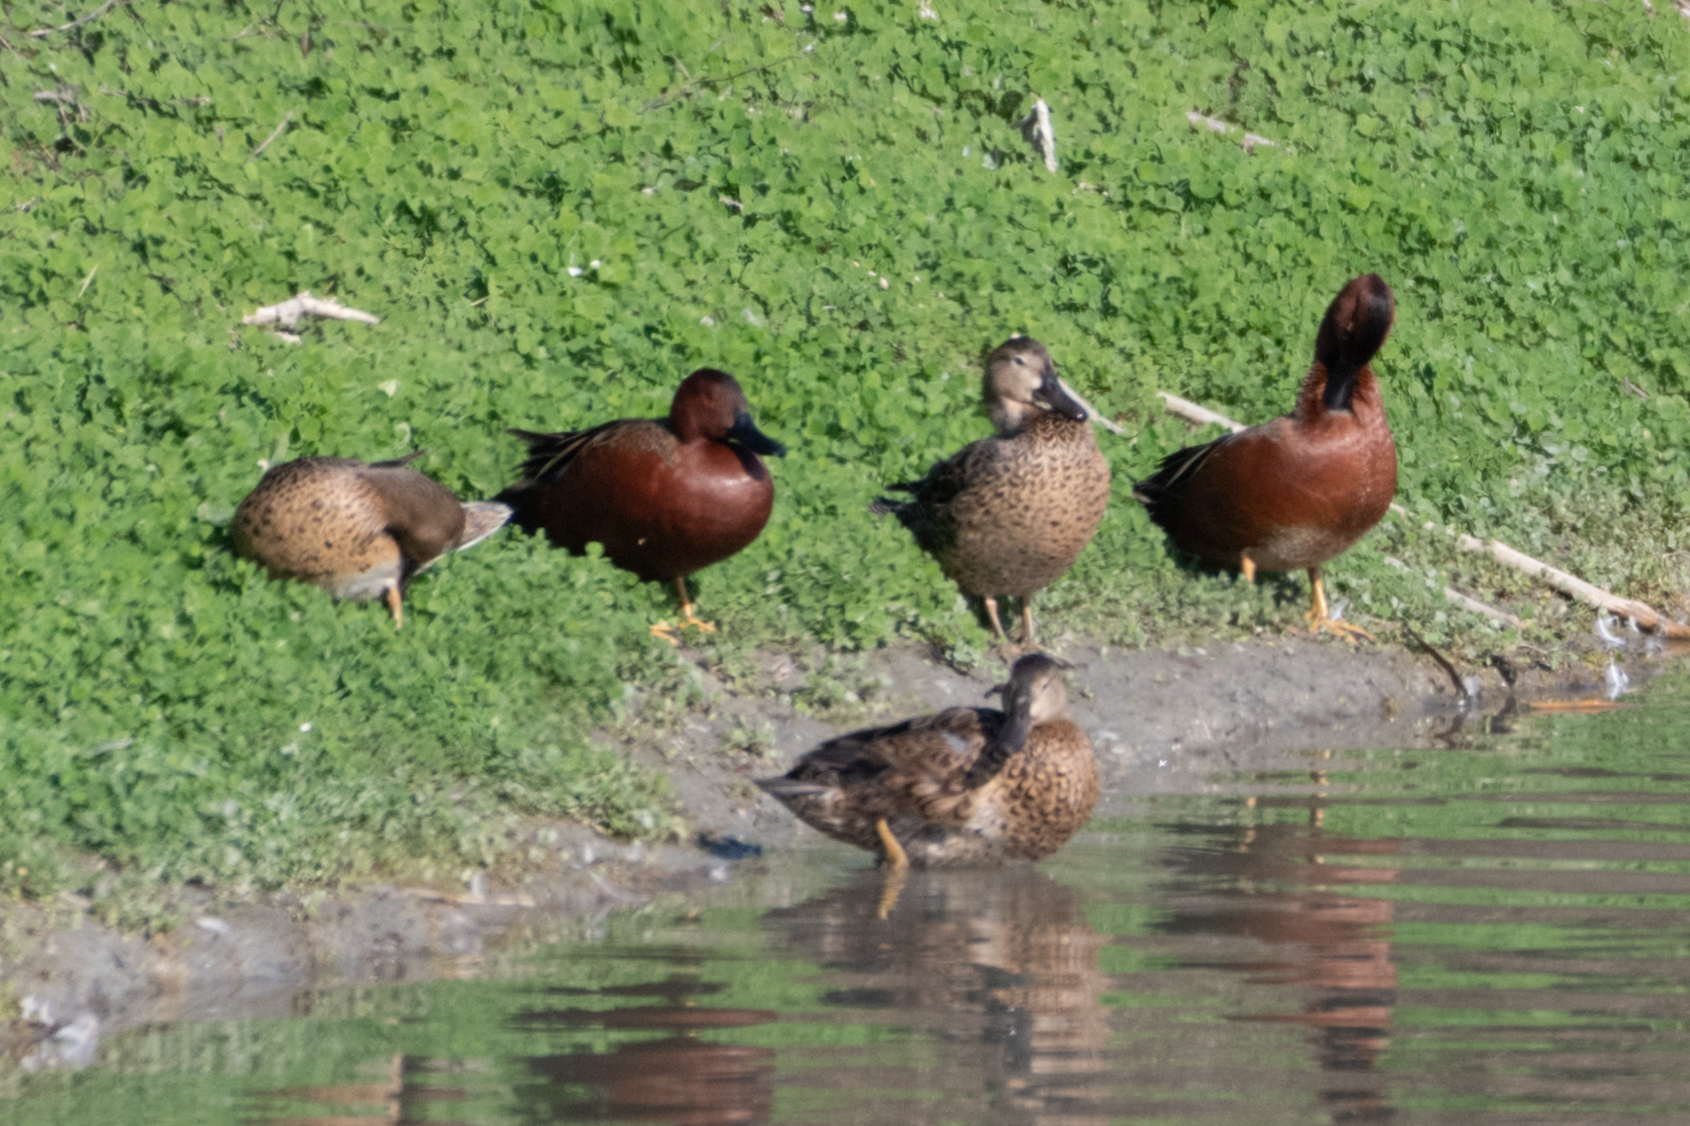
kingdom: Animalia
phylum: Chordata
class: Aves
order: Anseriformes
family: Anatidae
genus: Spatula
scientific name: Spatula cyanoptera
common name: Cinnamon teal
